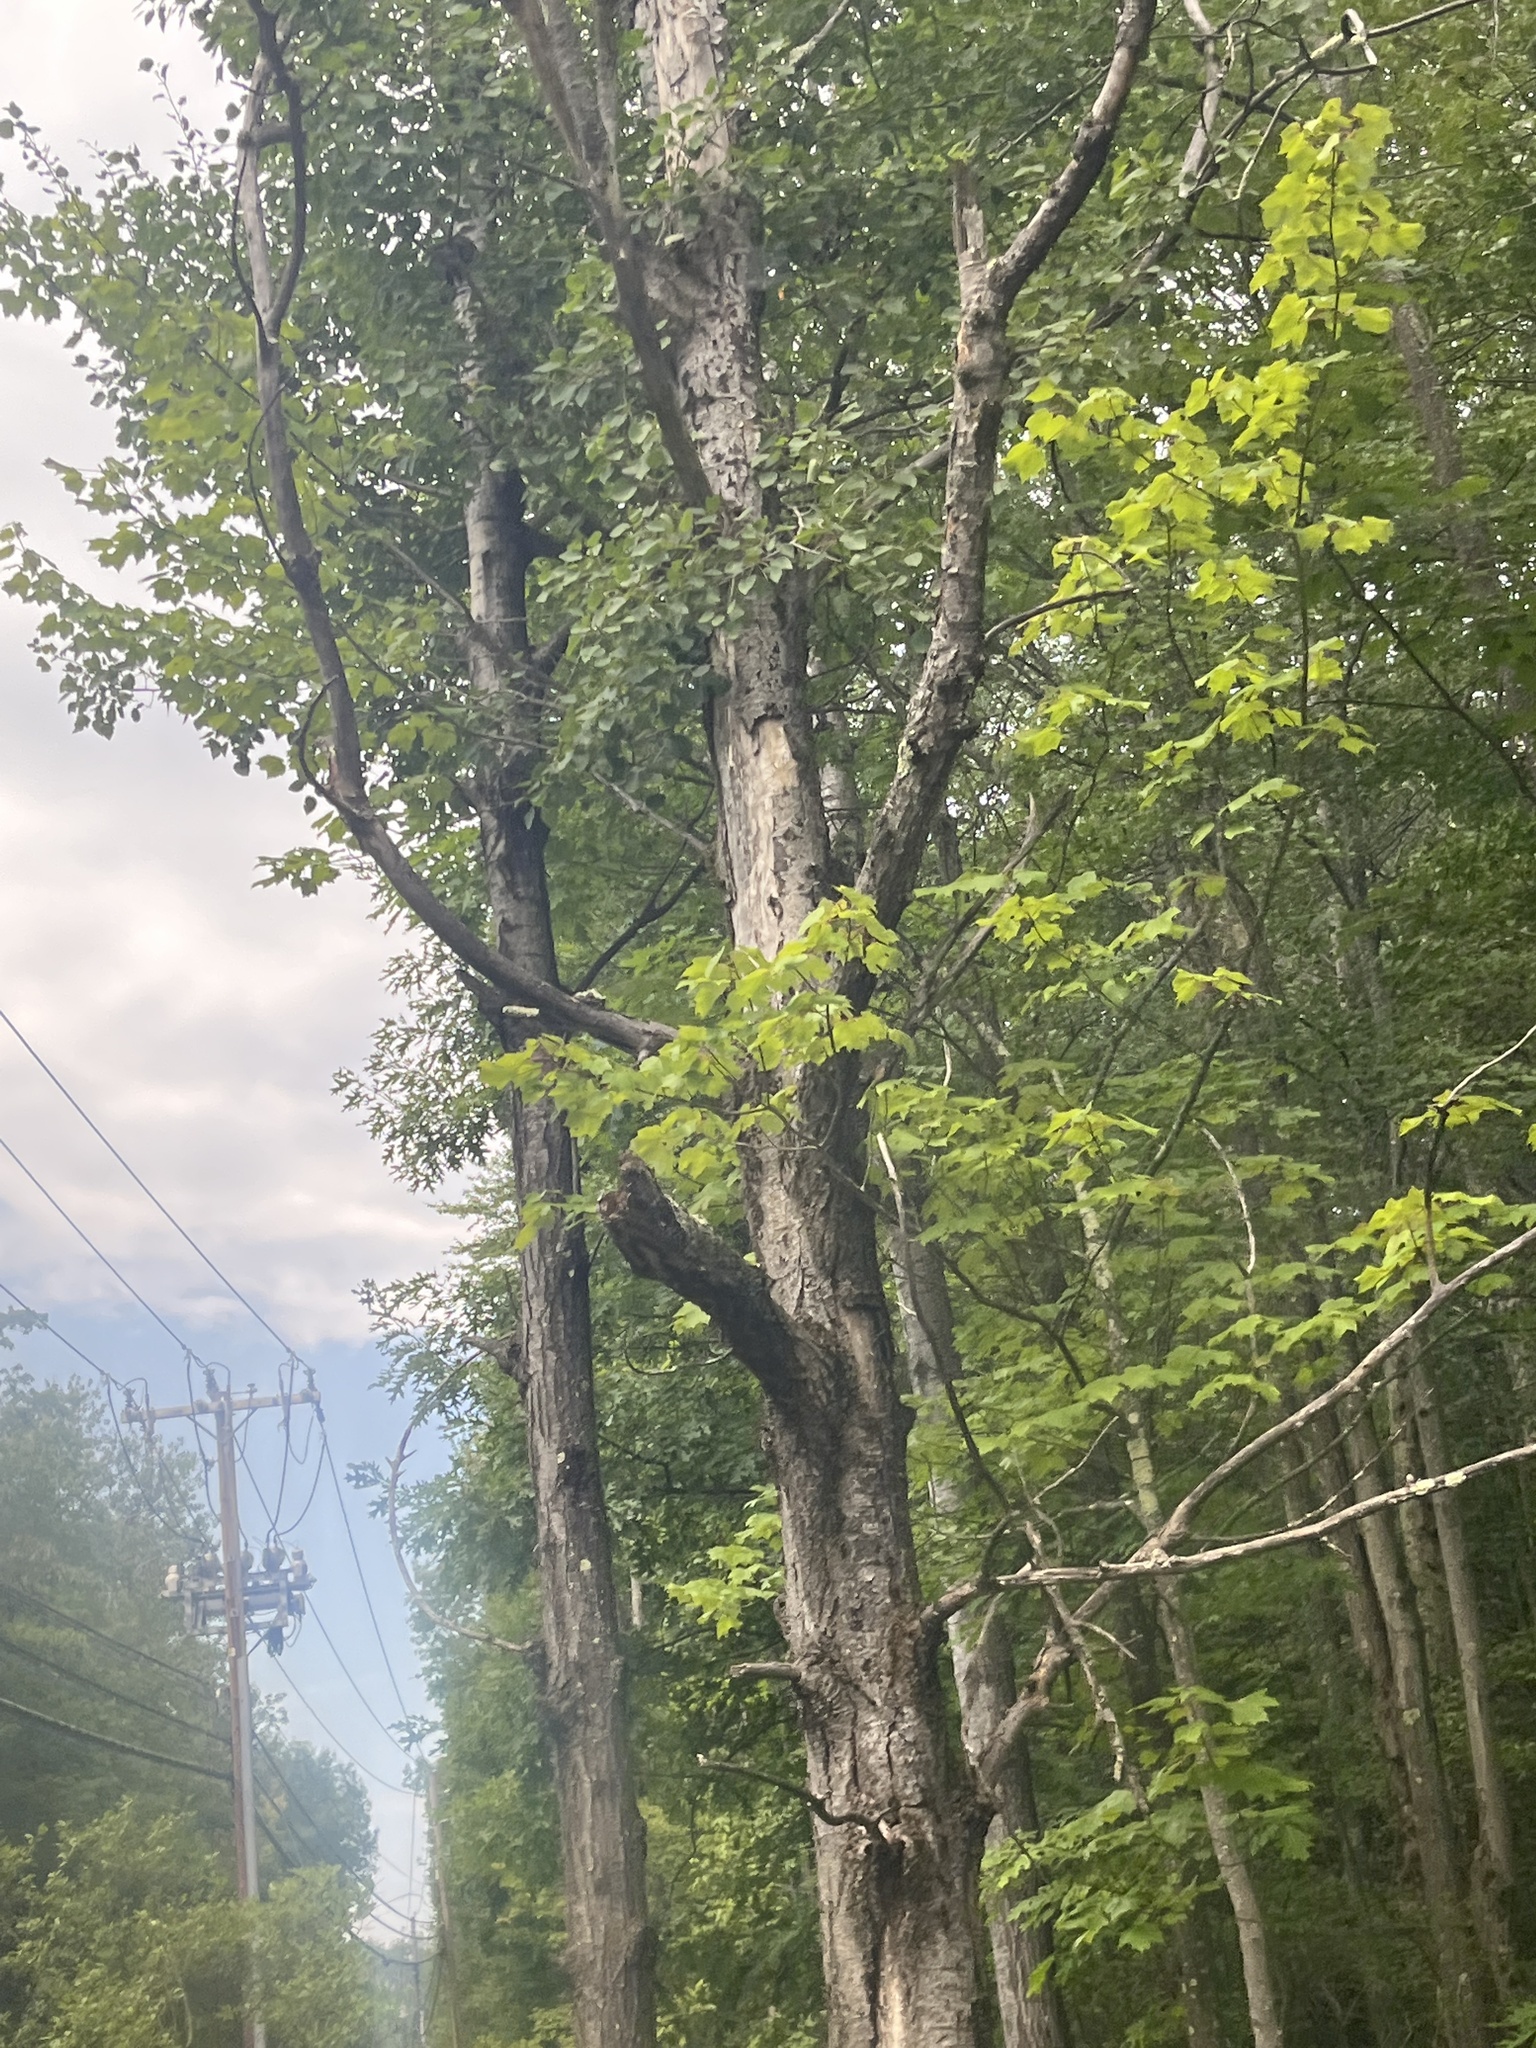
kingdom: Plantae
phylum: Tracheophyta
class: Magnoliopsida
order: Sapindales
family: Sapindaceae
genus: Acer
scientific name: Acer saccharum
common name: Sugar maple
